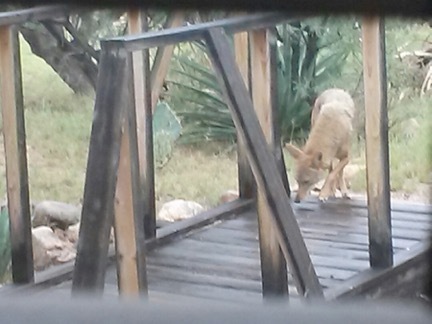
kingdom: Animalia
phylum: Chordata
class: Mammalia
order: Carnivora
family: Canidae
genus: Canis
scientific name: Canis latrans
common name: Coyote
